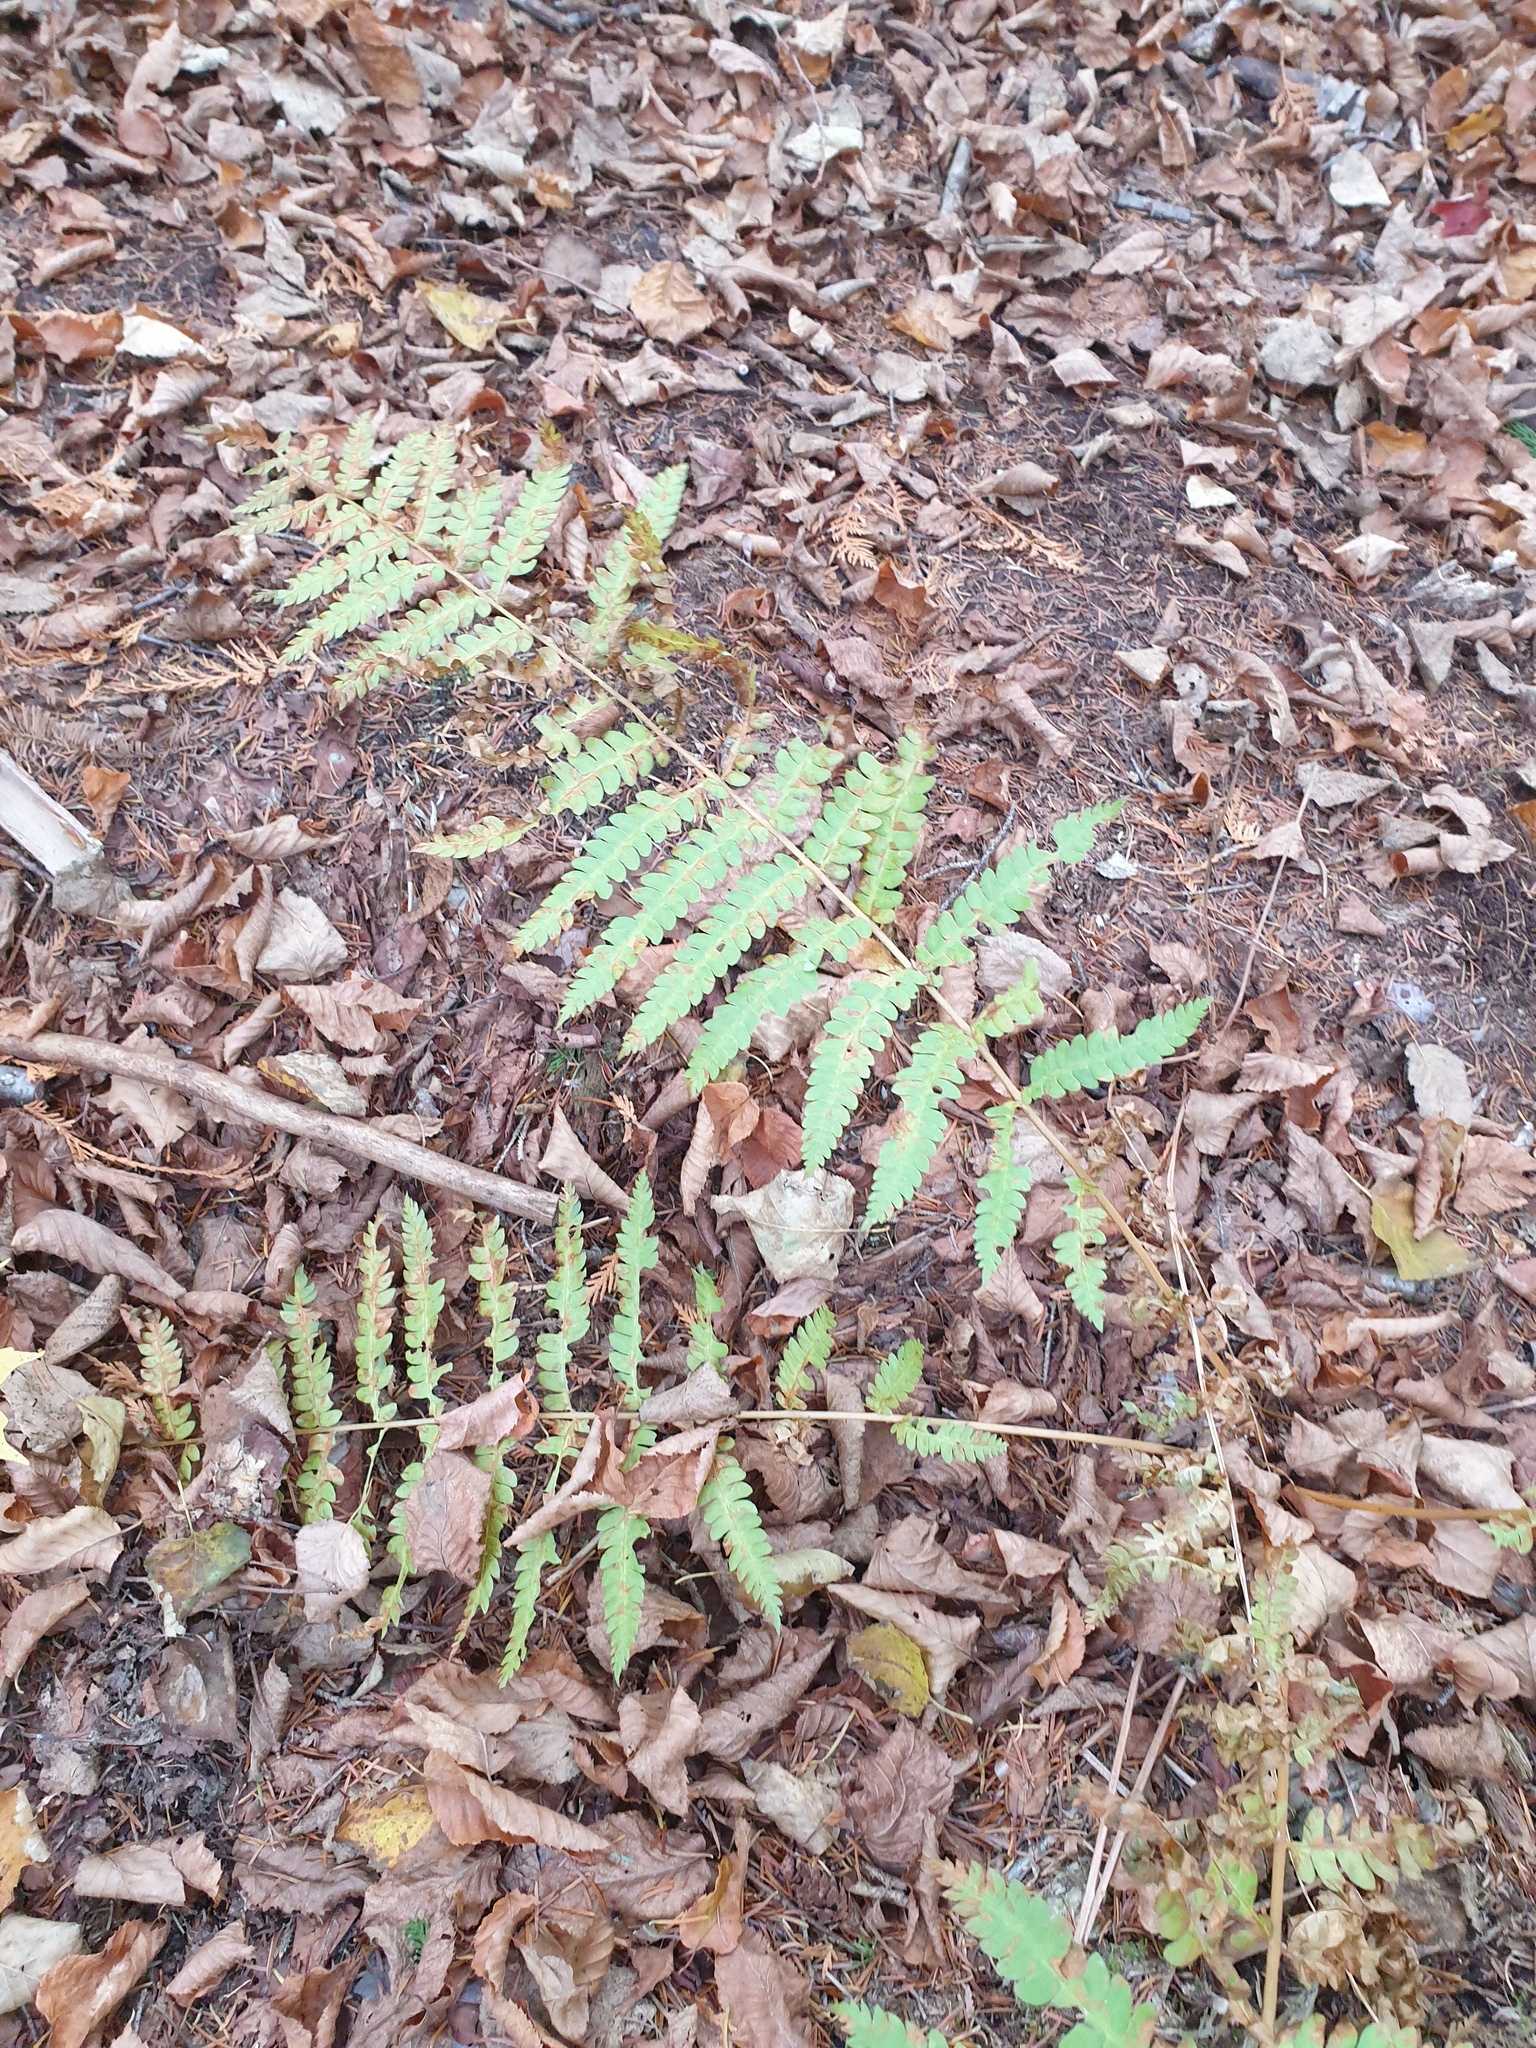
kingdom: Plantae
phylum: Tracheophyta
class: Polypodiopsida
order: Osmundales
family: Osmundaceae
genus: Osmundastrum
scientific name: Osmundastrum cinnamomeum
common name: Cinnamon fern
